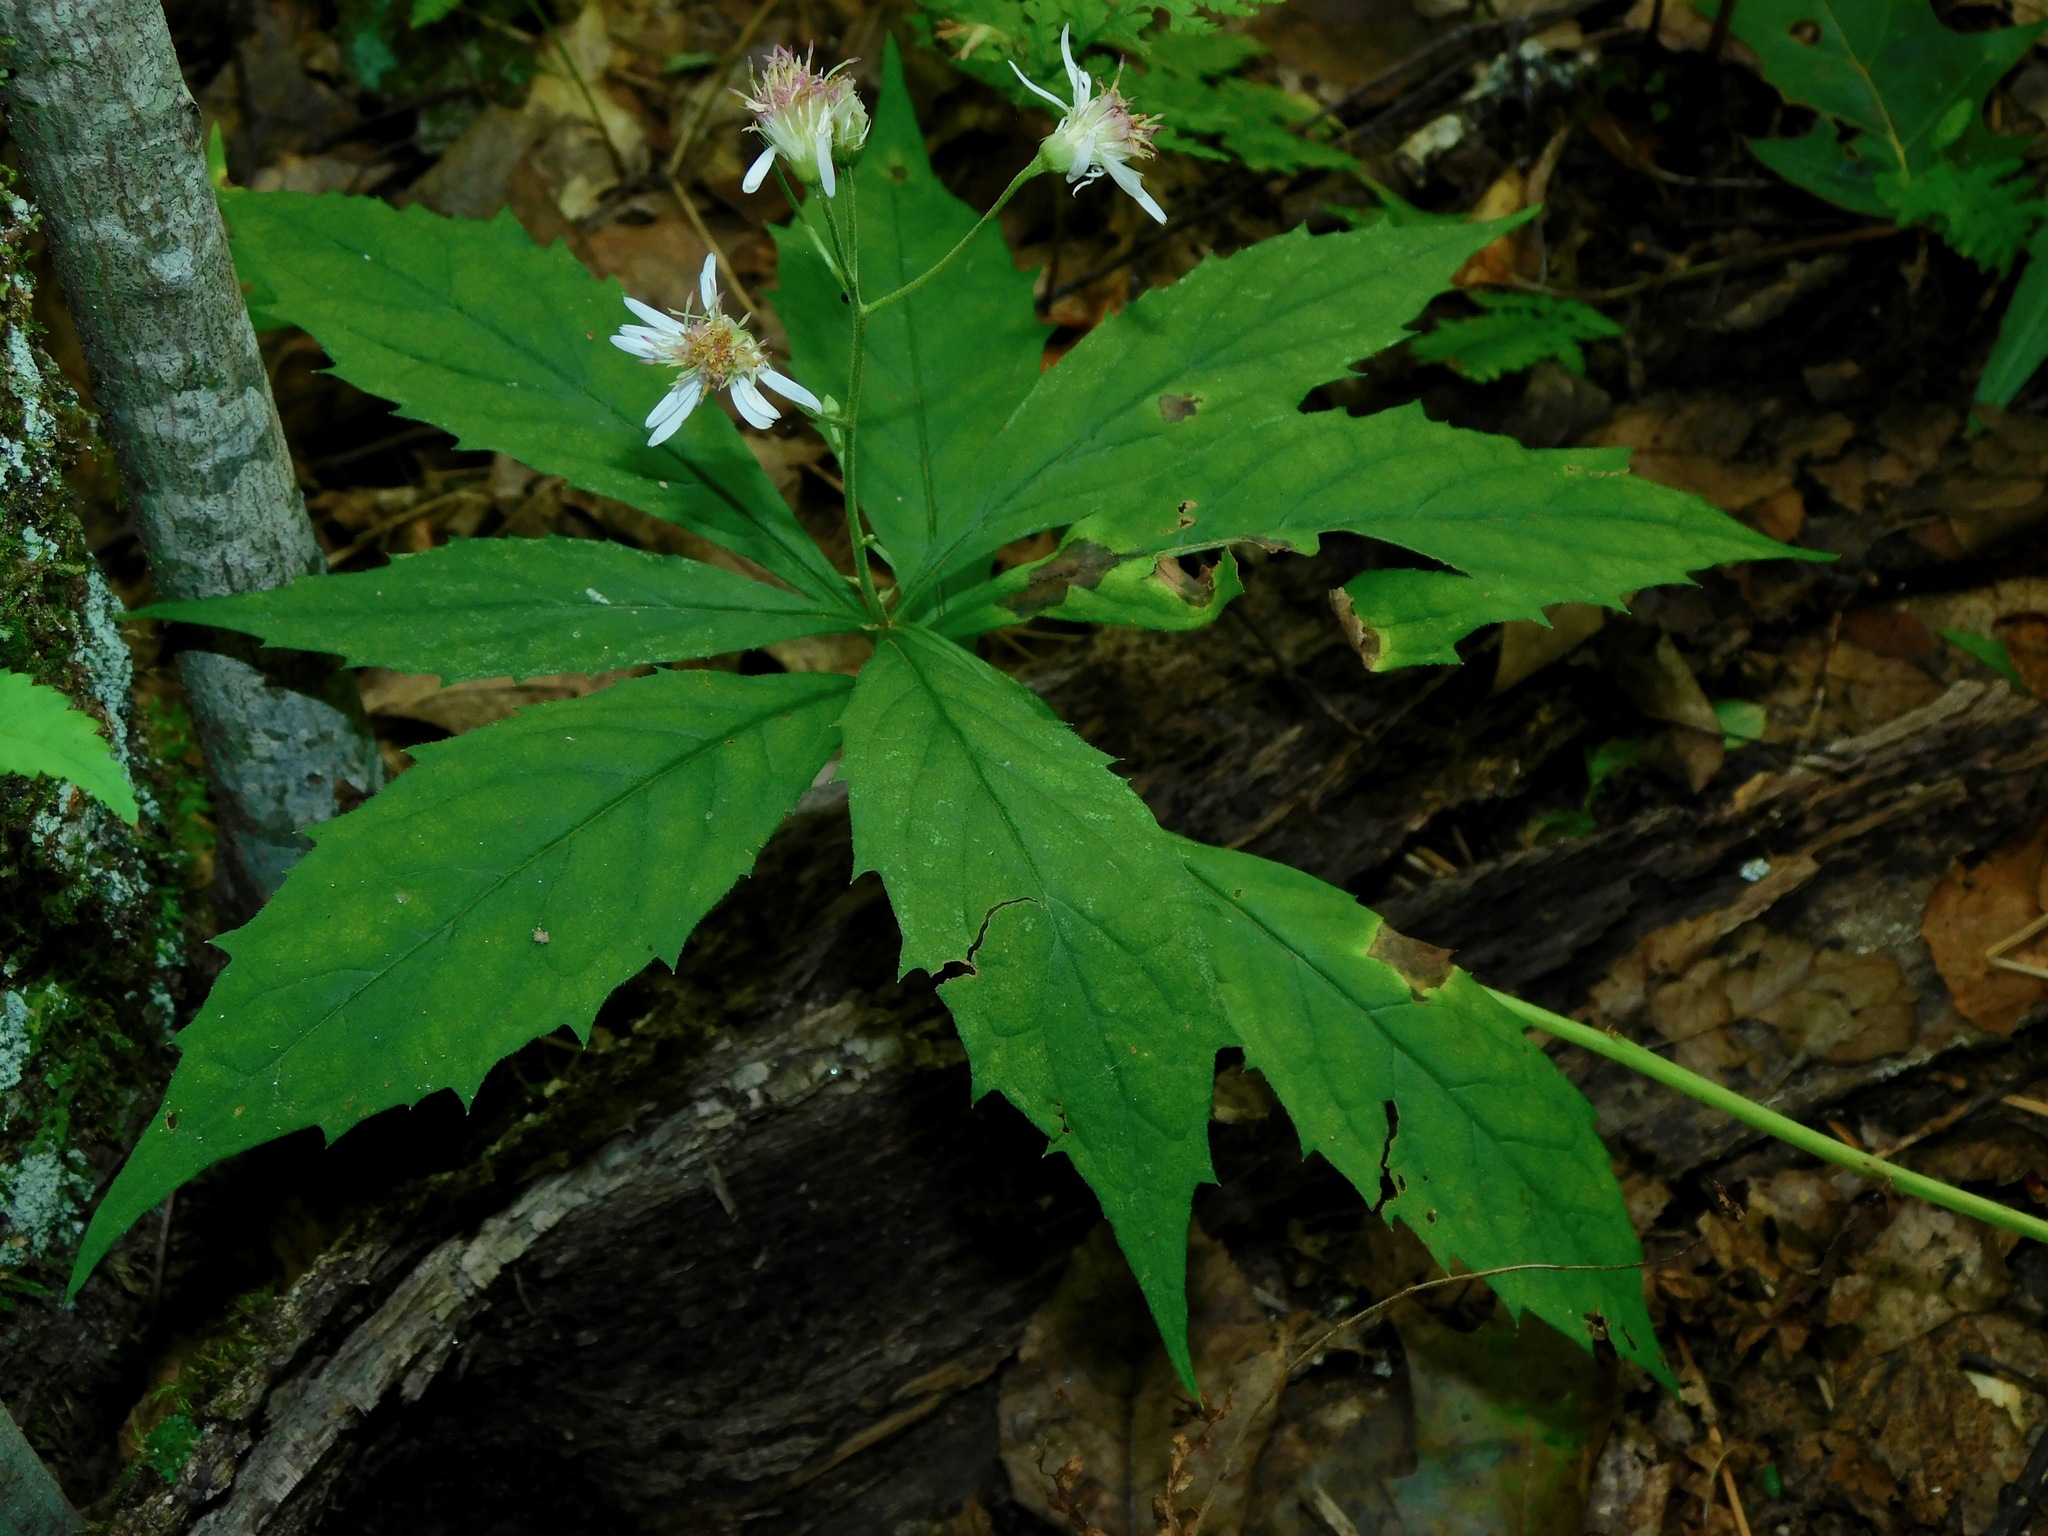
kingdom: Plantae
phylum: Tracheophyta
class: Magnoliopsida
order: Asterales
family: Asteraceae
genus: Oclemena
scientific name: Oclemena acuminata
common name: Mountain aster
